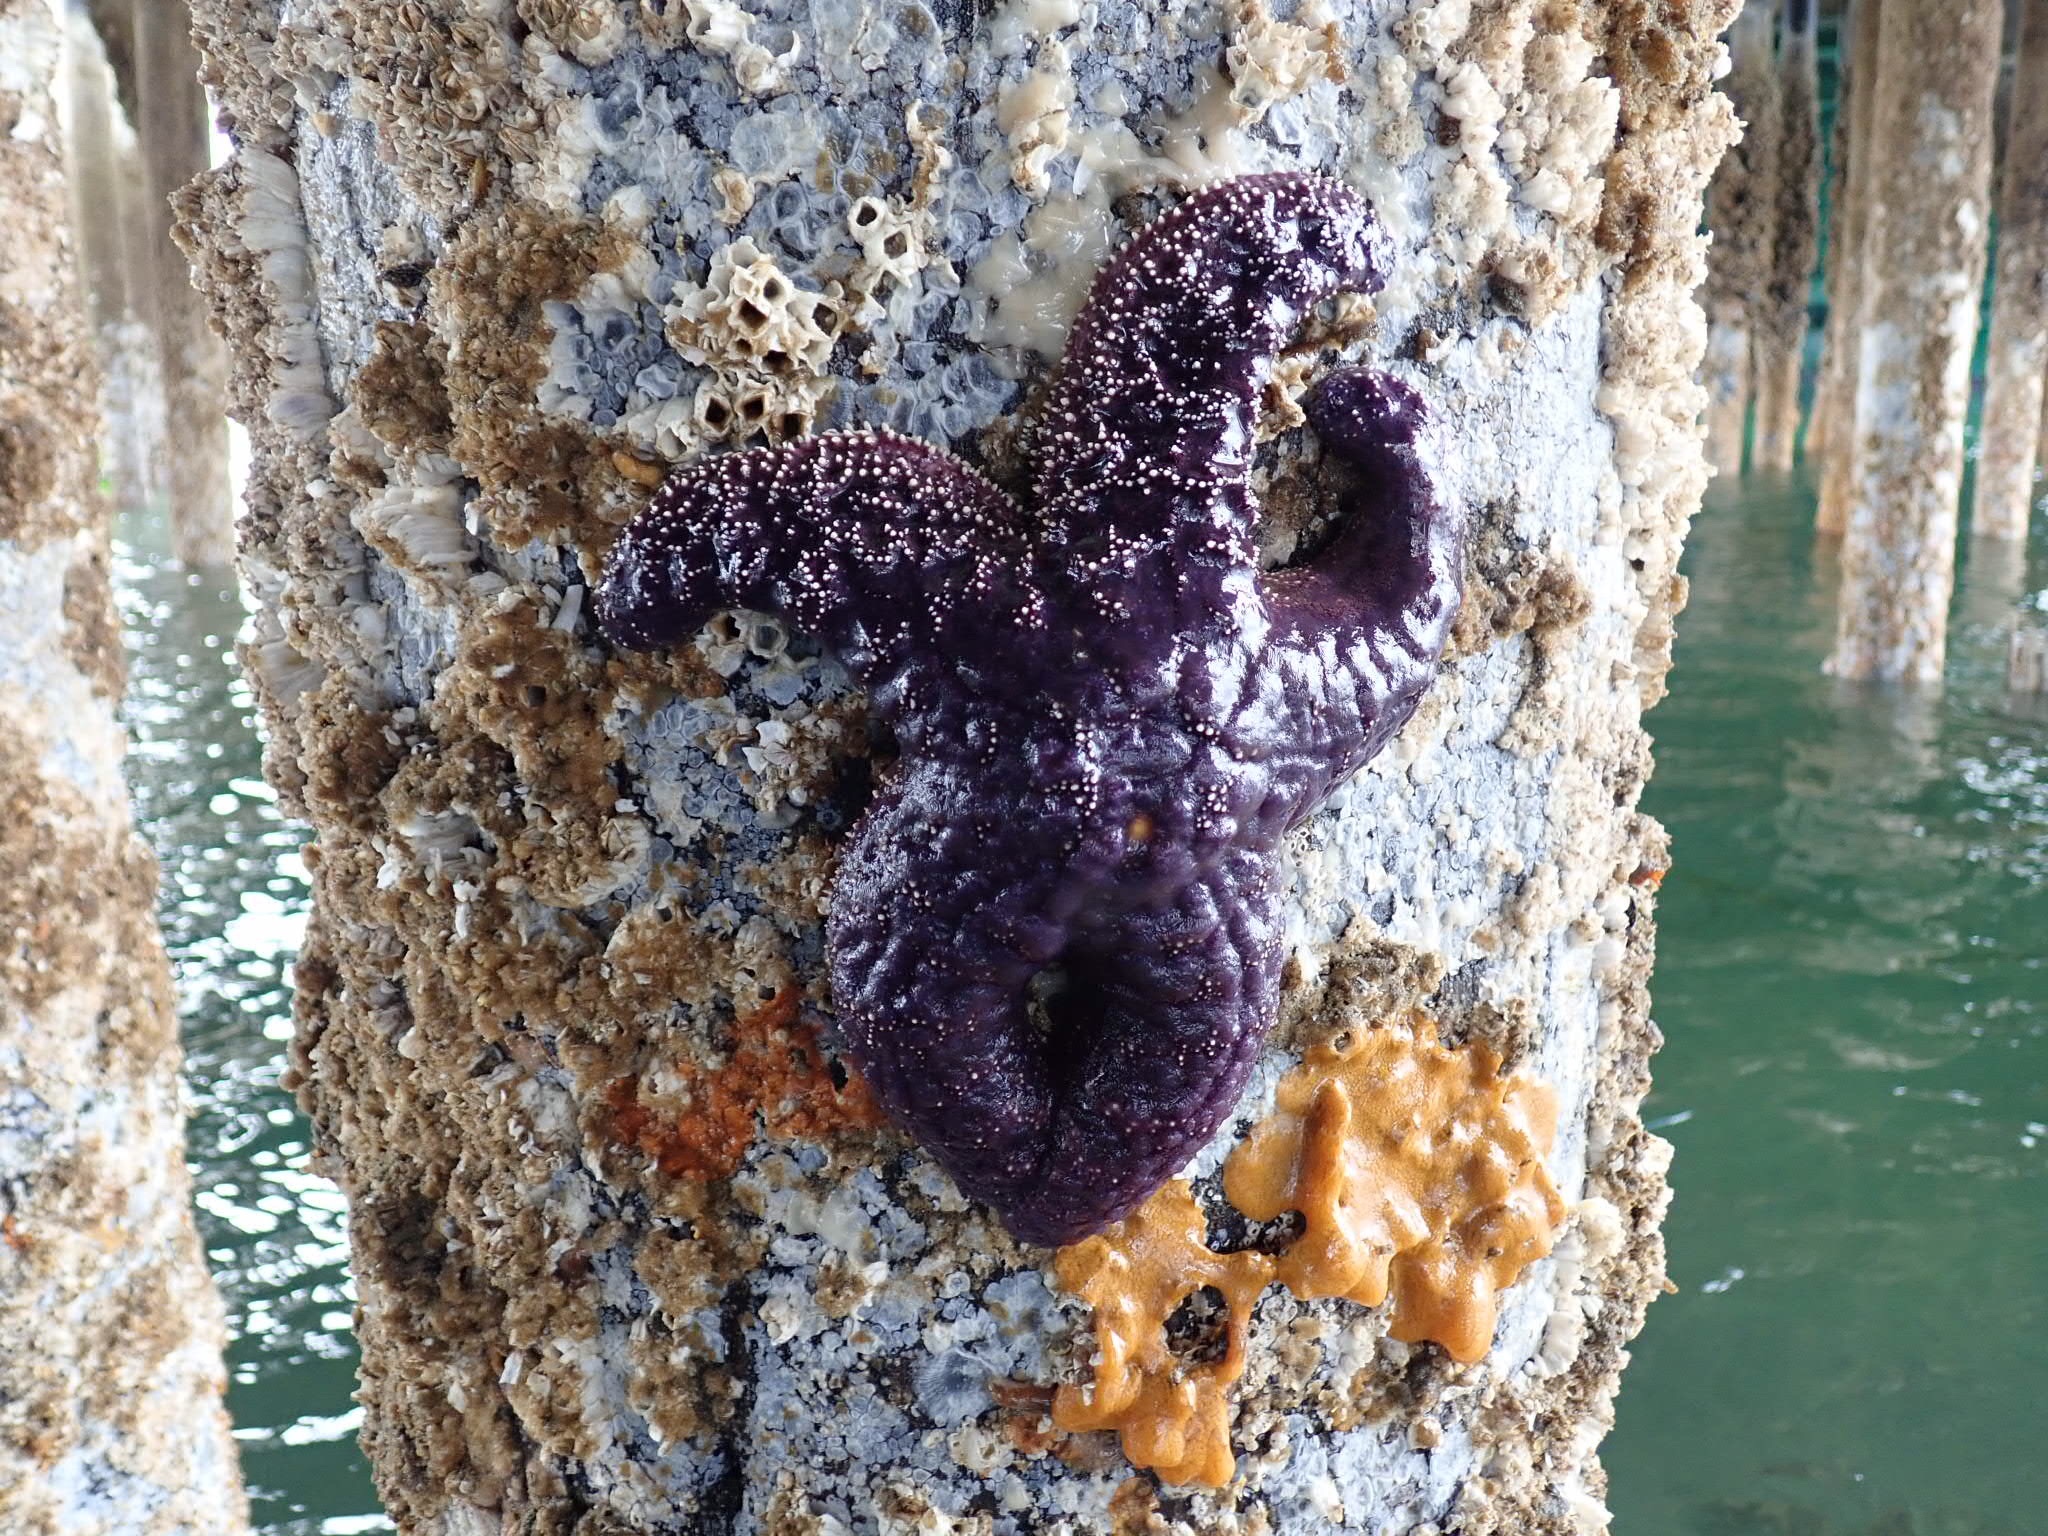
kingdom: Animalia
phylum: Echinodermata
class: Asteroidea
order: Forcipulatida
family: Asteriidae
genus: Pisaster
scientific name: Pisaster ochraceus
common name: Ochre stars
